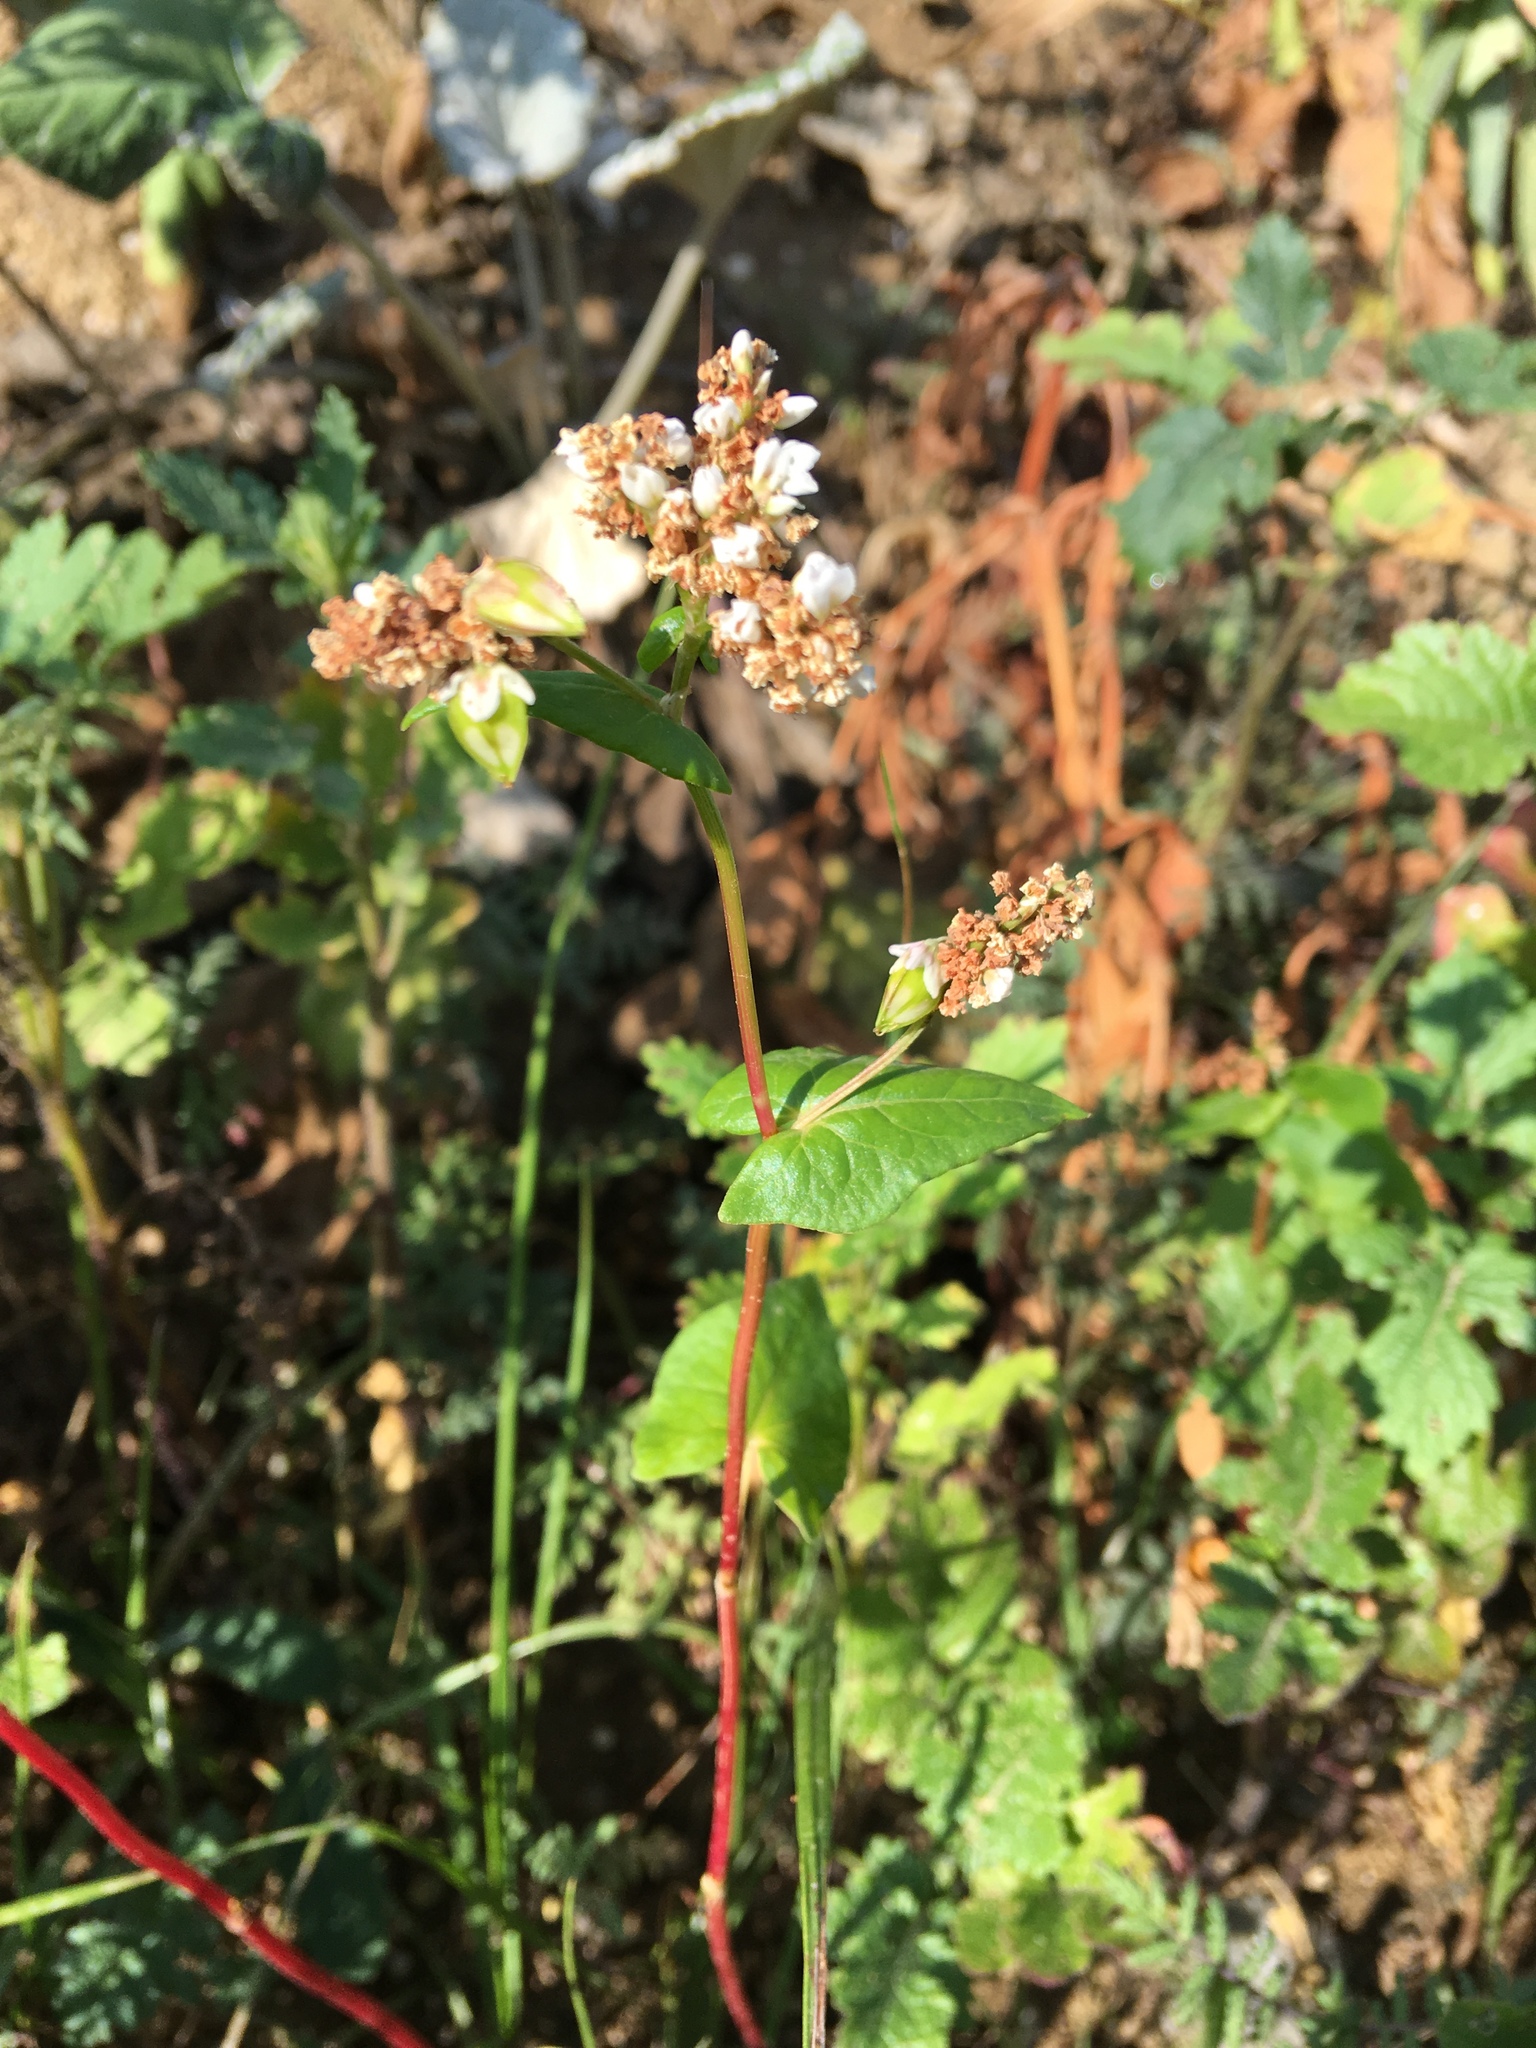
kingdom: Plantae
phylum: Tracheophyta
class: Magnoliopsida
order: Caryophyllales
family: Polygonaceae
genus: Fagopyrum
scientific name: Fagopyrum esculentum
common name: Buckwheat
